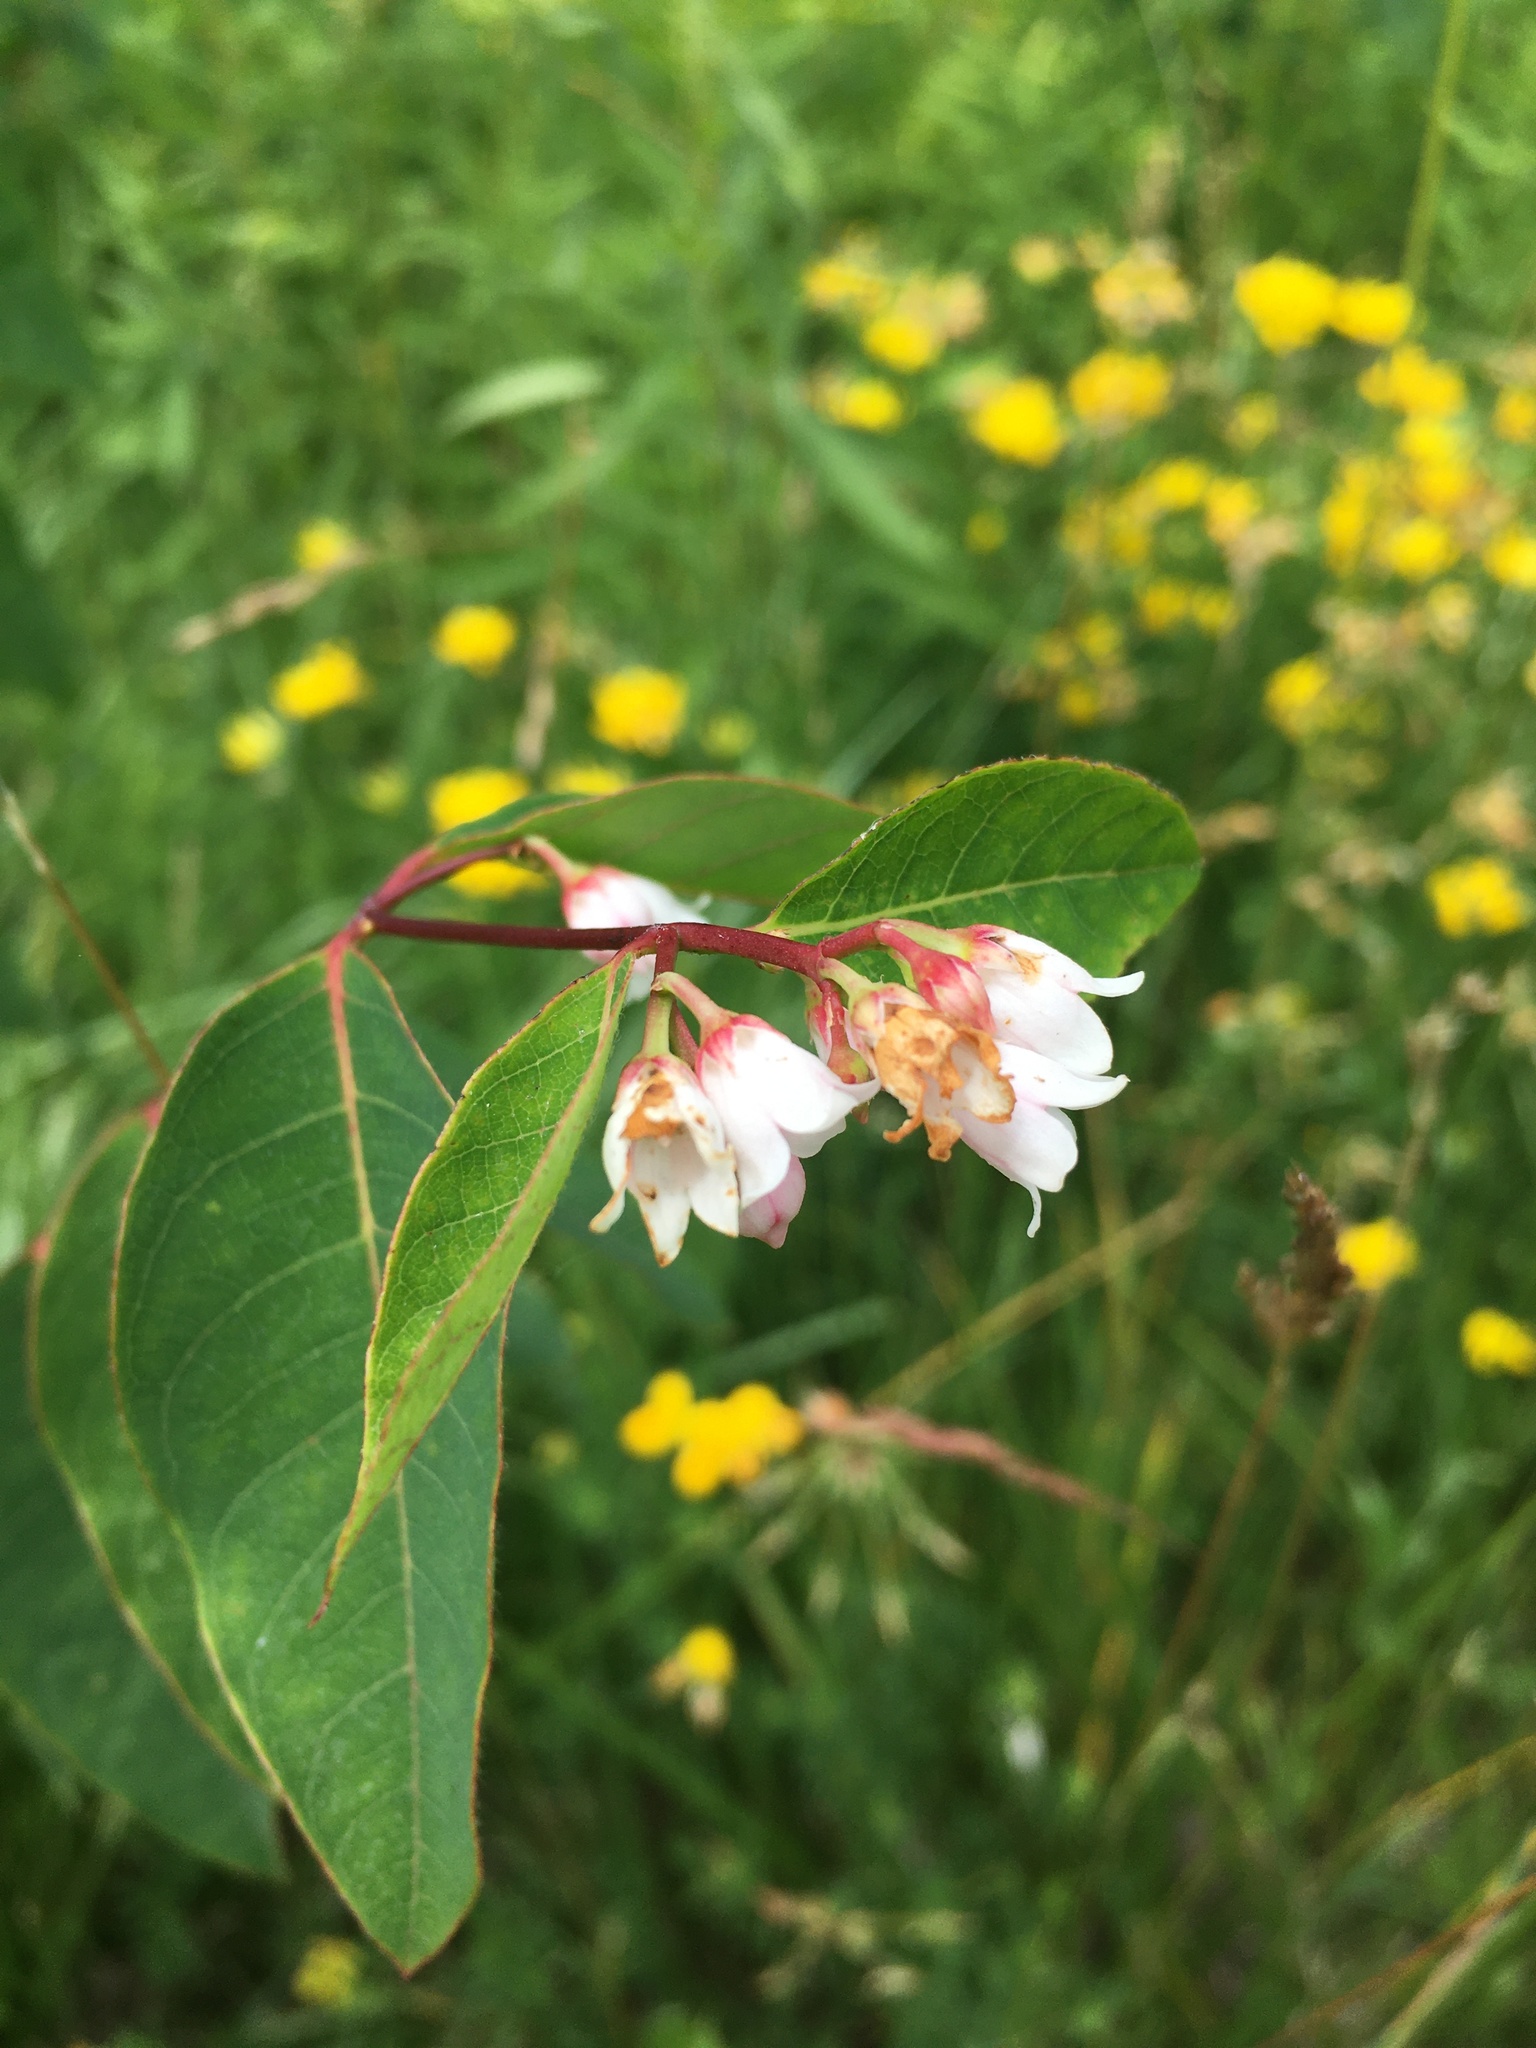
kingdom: Plantae
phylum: Tracheophyta
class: Magnoliopsida
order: Gentianales
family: Apocynaceae
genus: Apocynum
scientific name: Apocynum androsaemifolium
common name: Spreading dogbane
